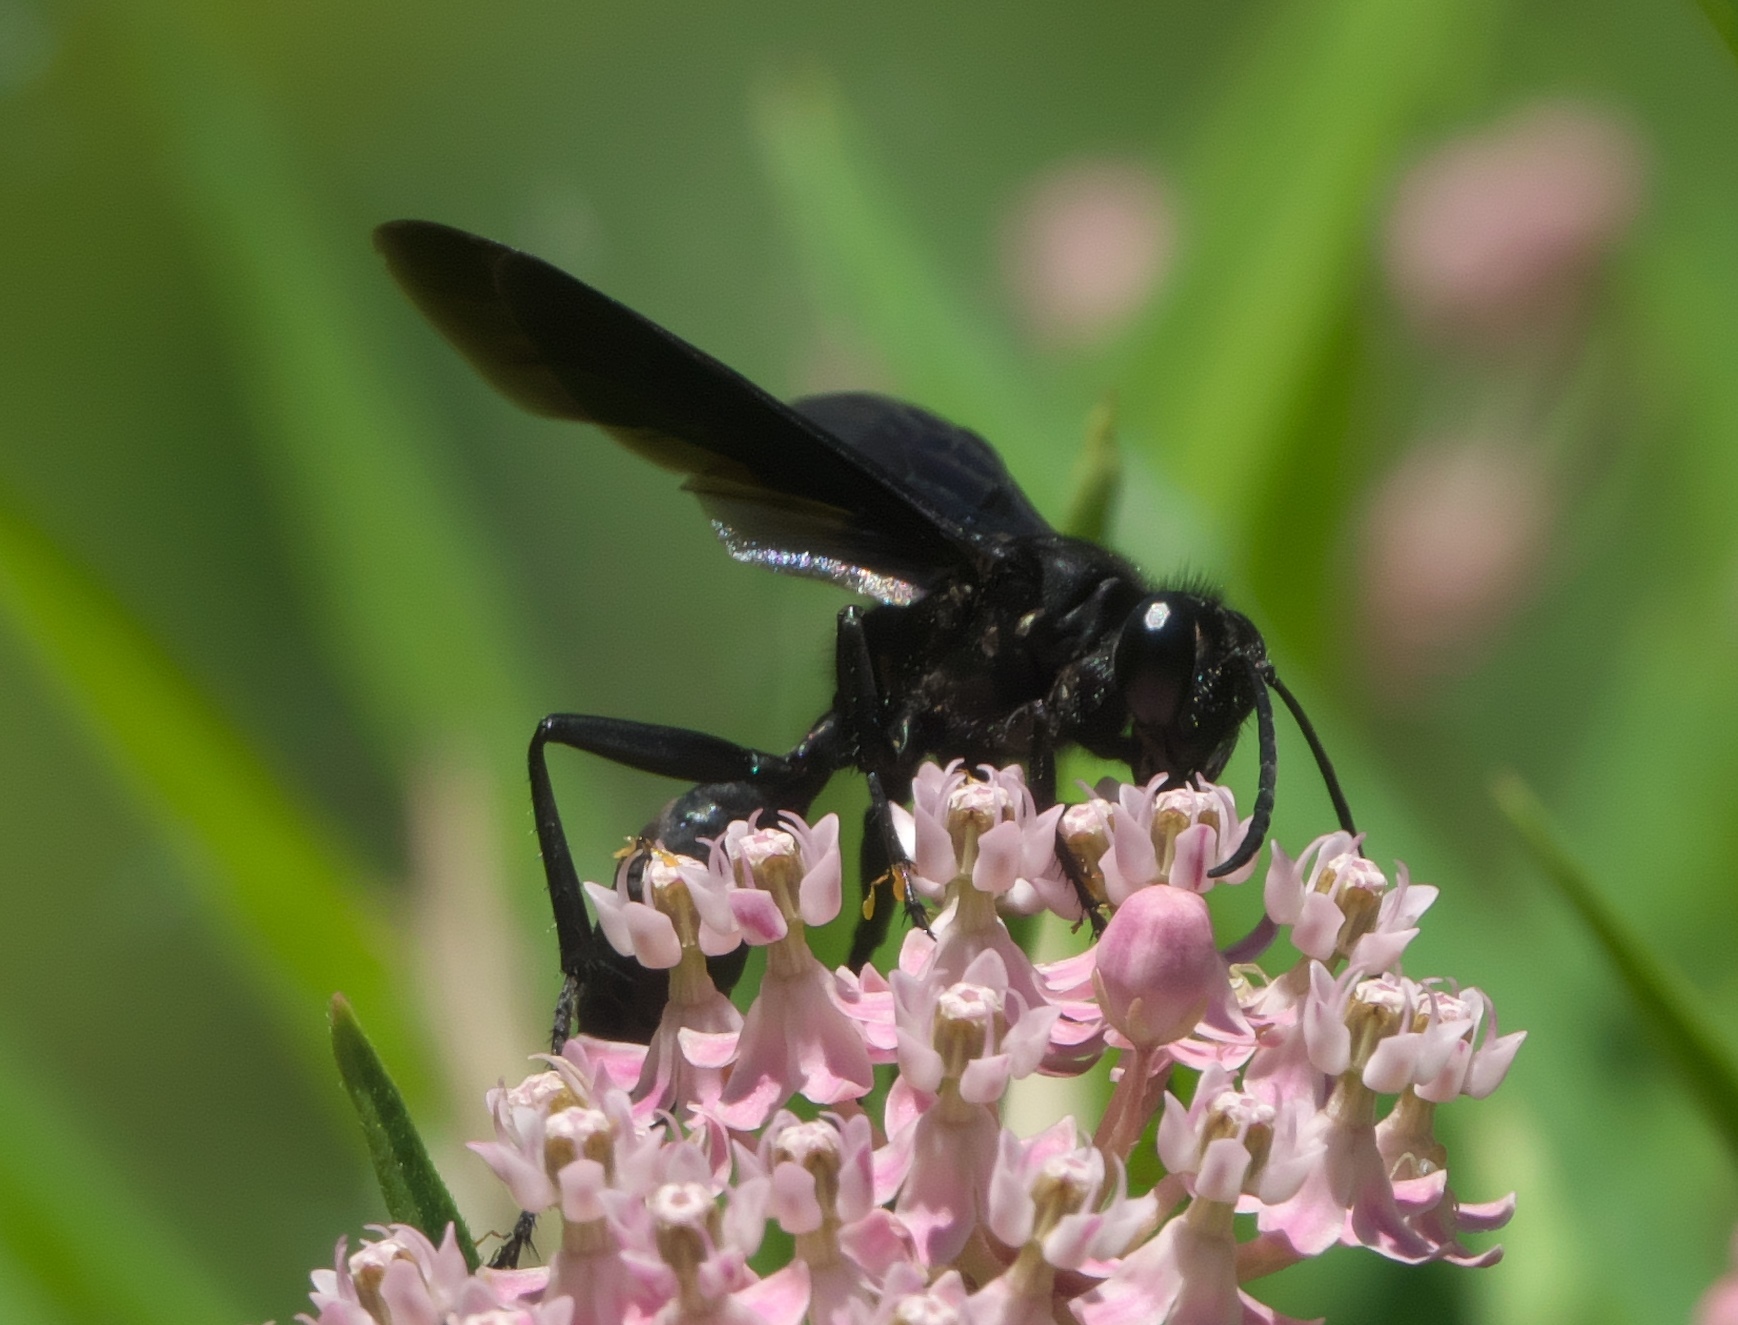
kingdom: Animalia
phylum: Arthropoda
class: Insecta
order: Hymenoptera
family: Sphecidae
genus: Sphex
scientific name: Sphex pensylvanicus
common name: Great black digger wasp
